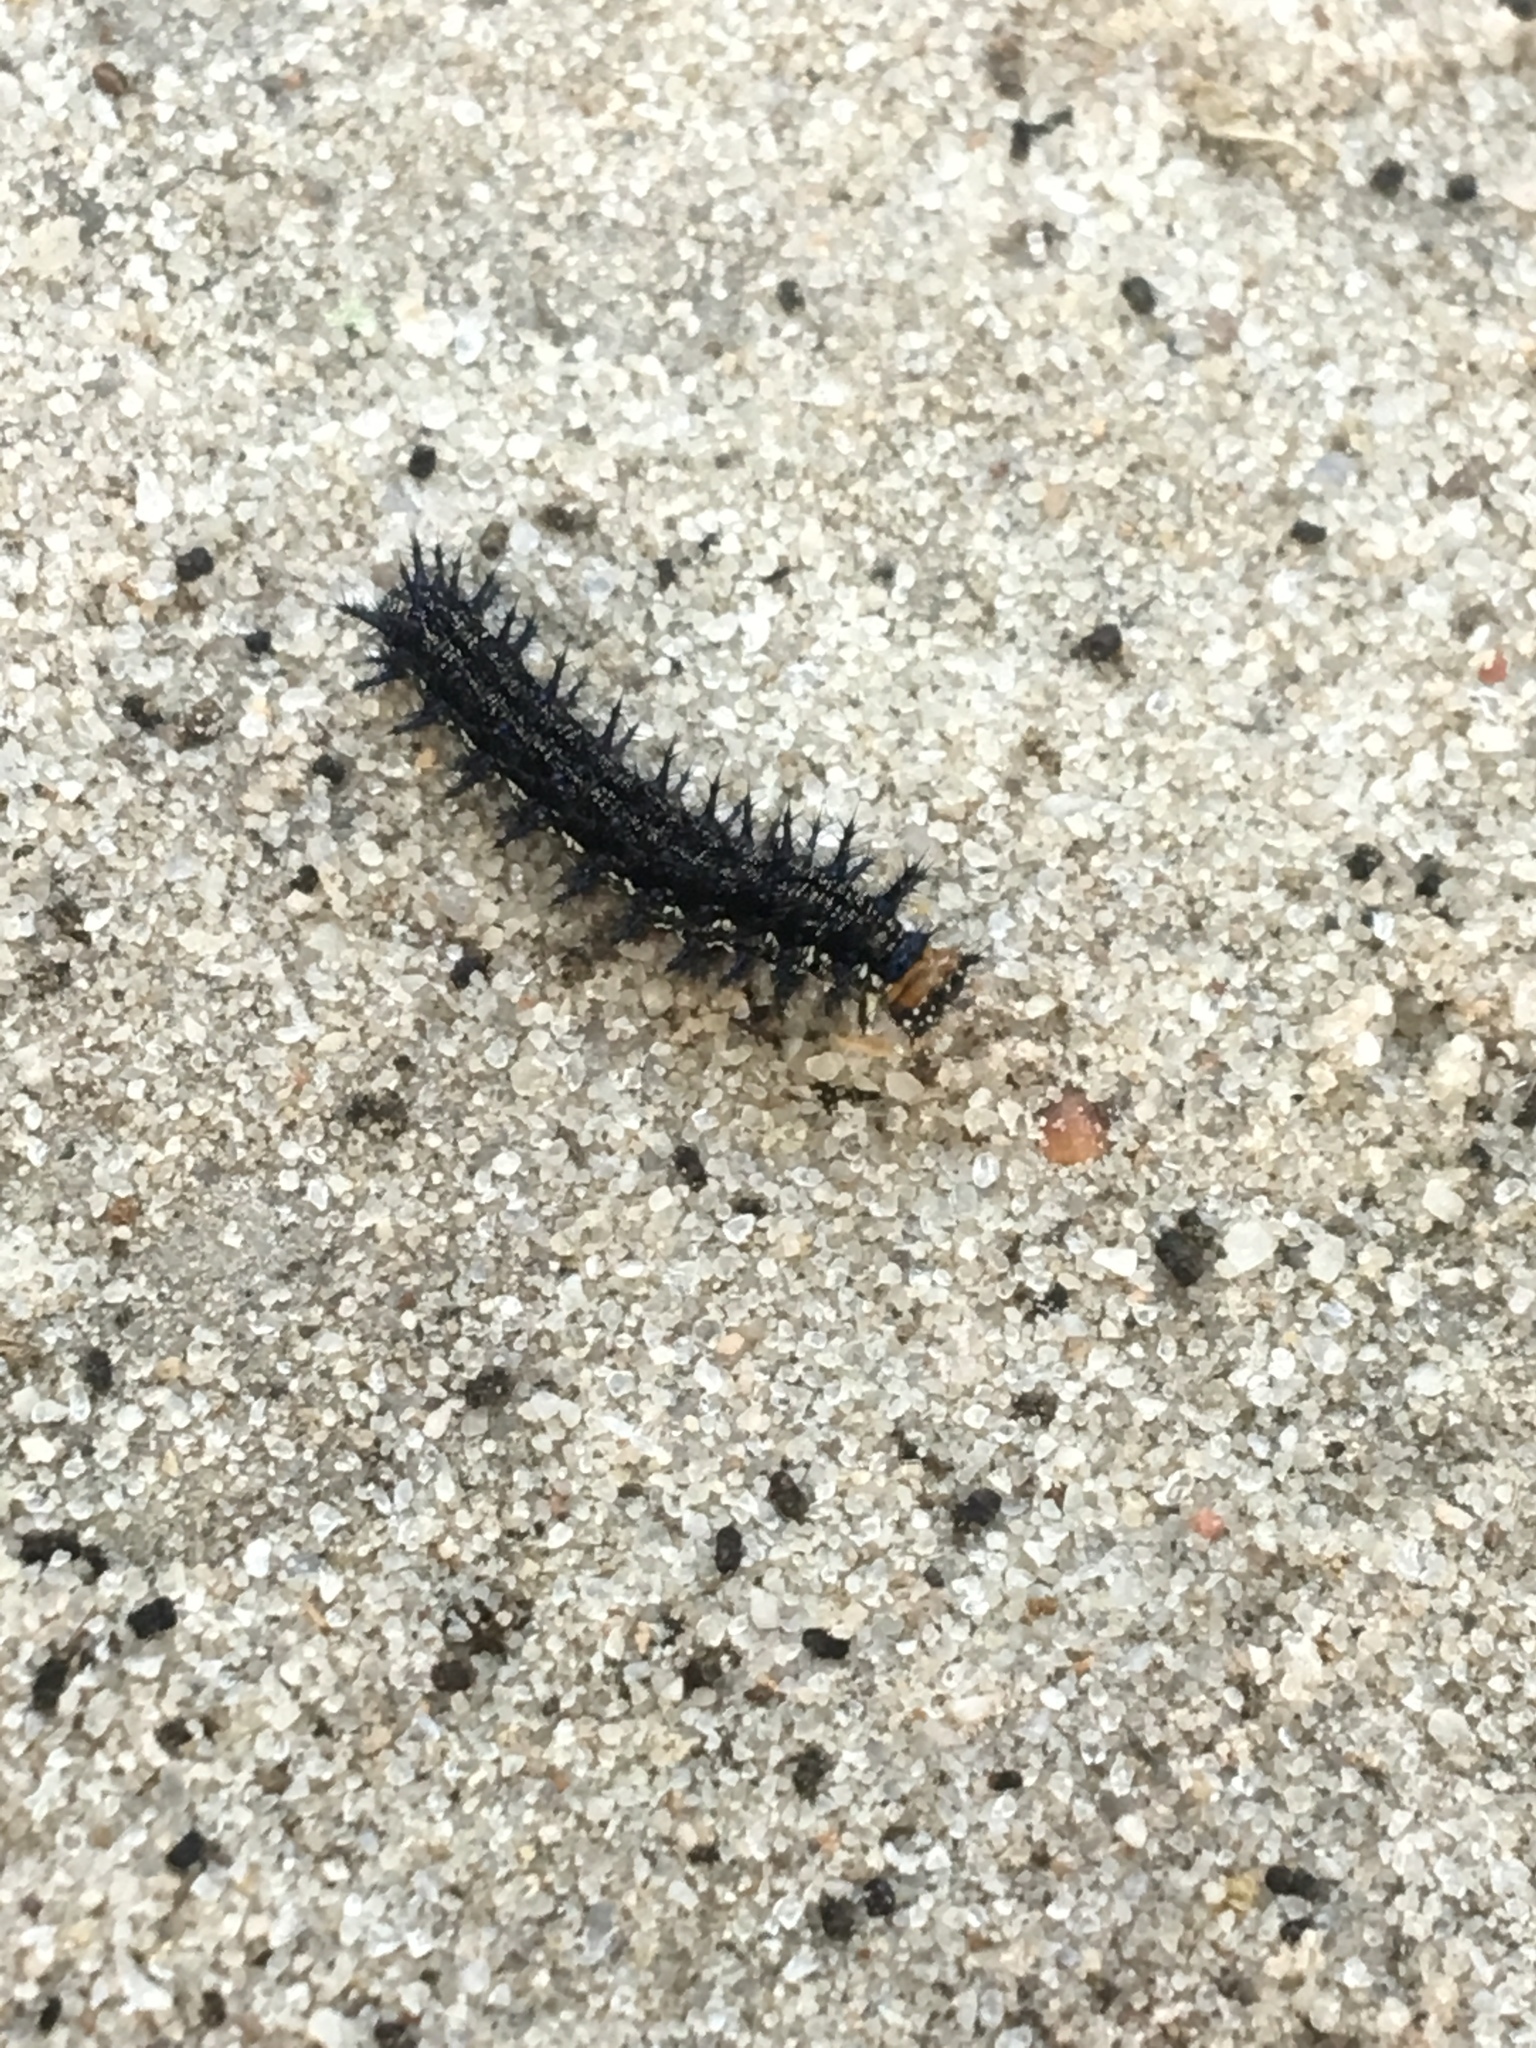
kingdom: Animalia
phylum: Arthropoda
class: Insecta
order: Lepidoptera
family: Nymphalidae
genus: Junonia
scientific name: Junonia coenia
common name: Common buckeye
